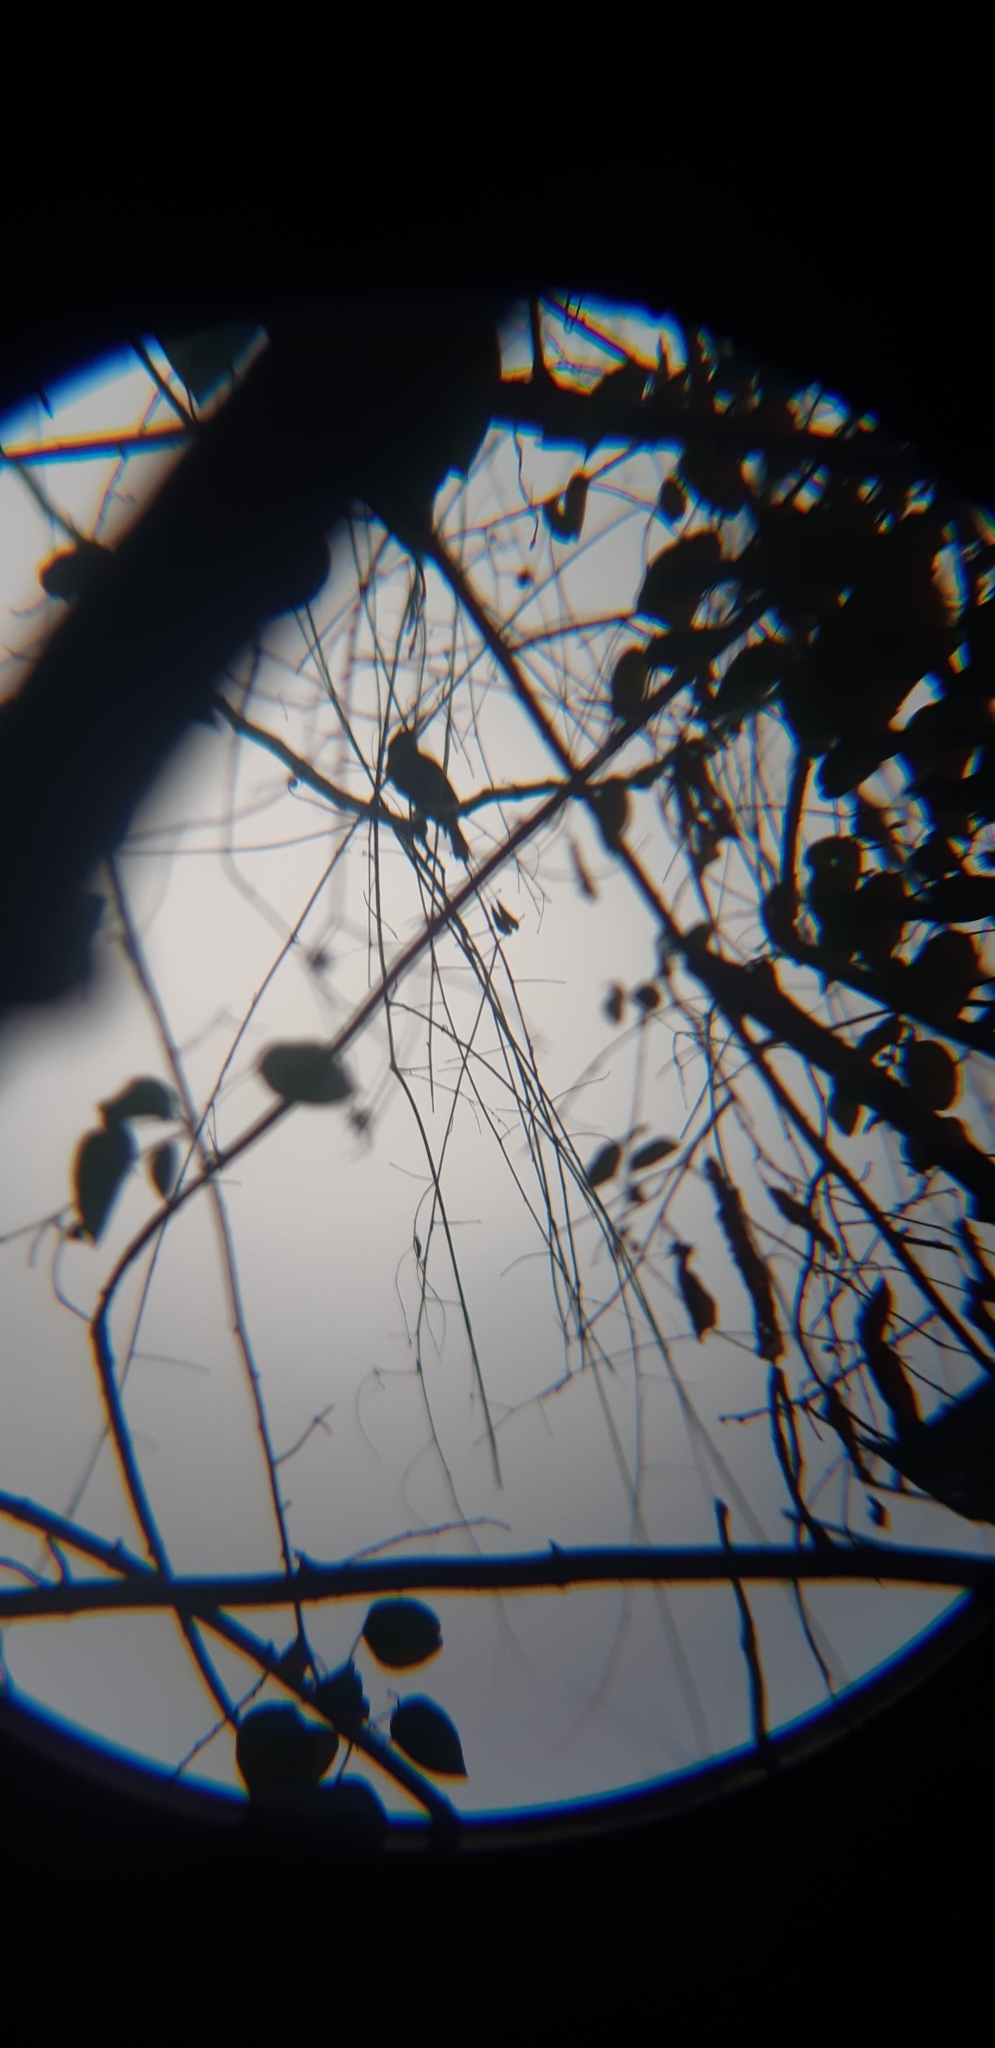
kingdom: Animalia
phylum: Chordata
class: Aves
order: Coraciiformes
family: Momotidae
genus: Eumomota
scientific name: Eumomota superciliosa
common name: Turquoise-browed motmot
